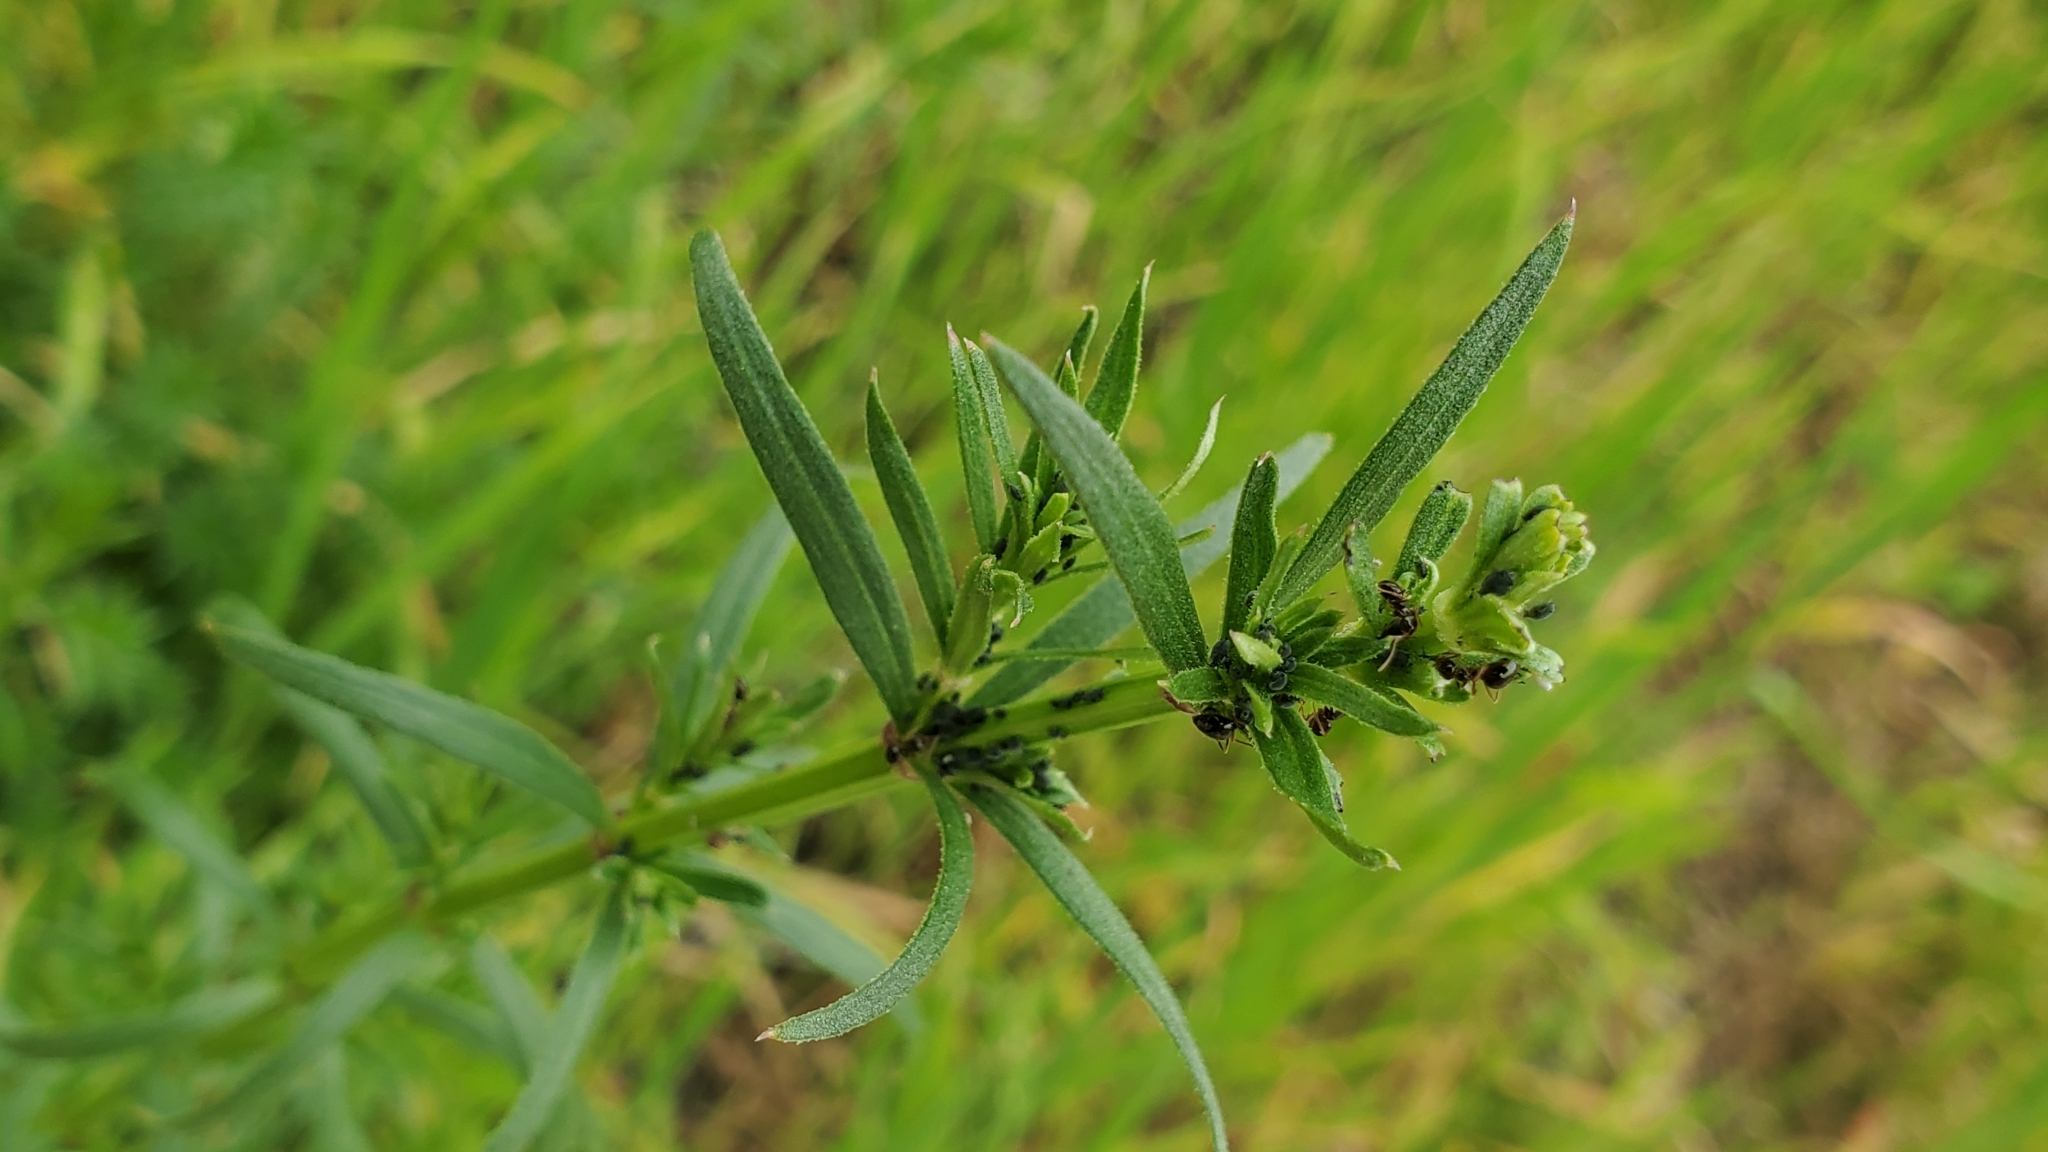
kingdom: Plantae
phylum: Tracheophyta
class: Magnoliopsida
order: Gentianales
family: Rubiaceae
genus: Galium
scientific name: Galium angustifolium
